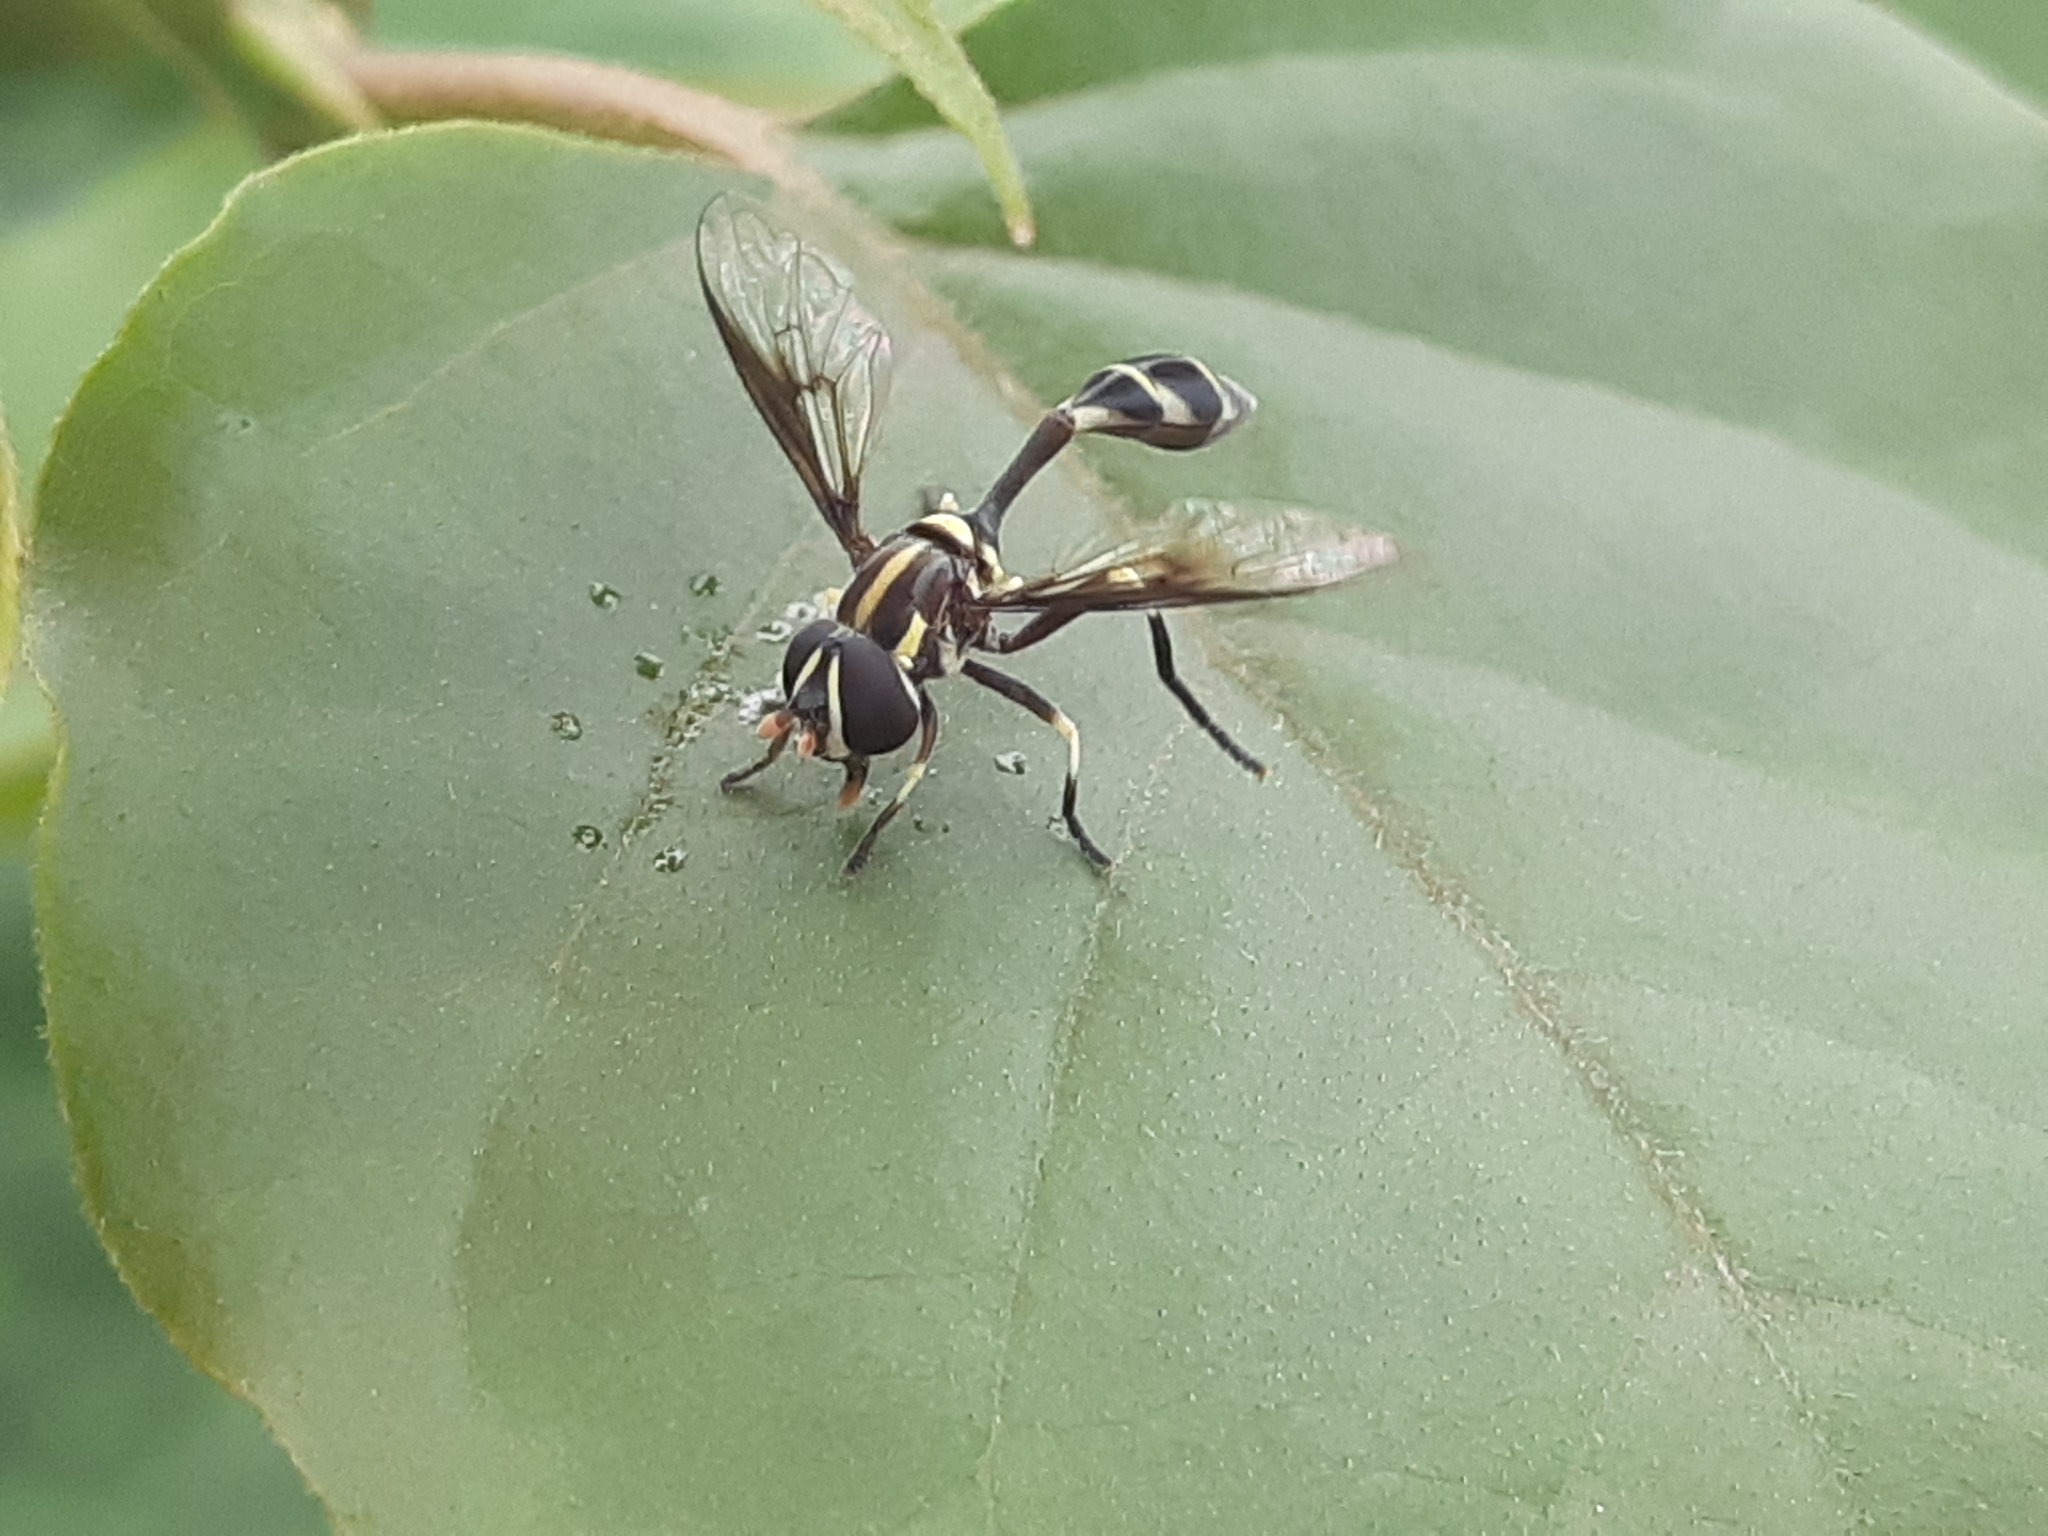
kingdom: Animalia
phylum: Arthropoda
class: Insecta
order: Diptera
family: Syrphidae
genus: Eosalpingogaster
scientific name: Eosalpingogaster nigriventris
